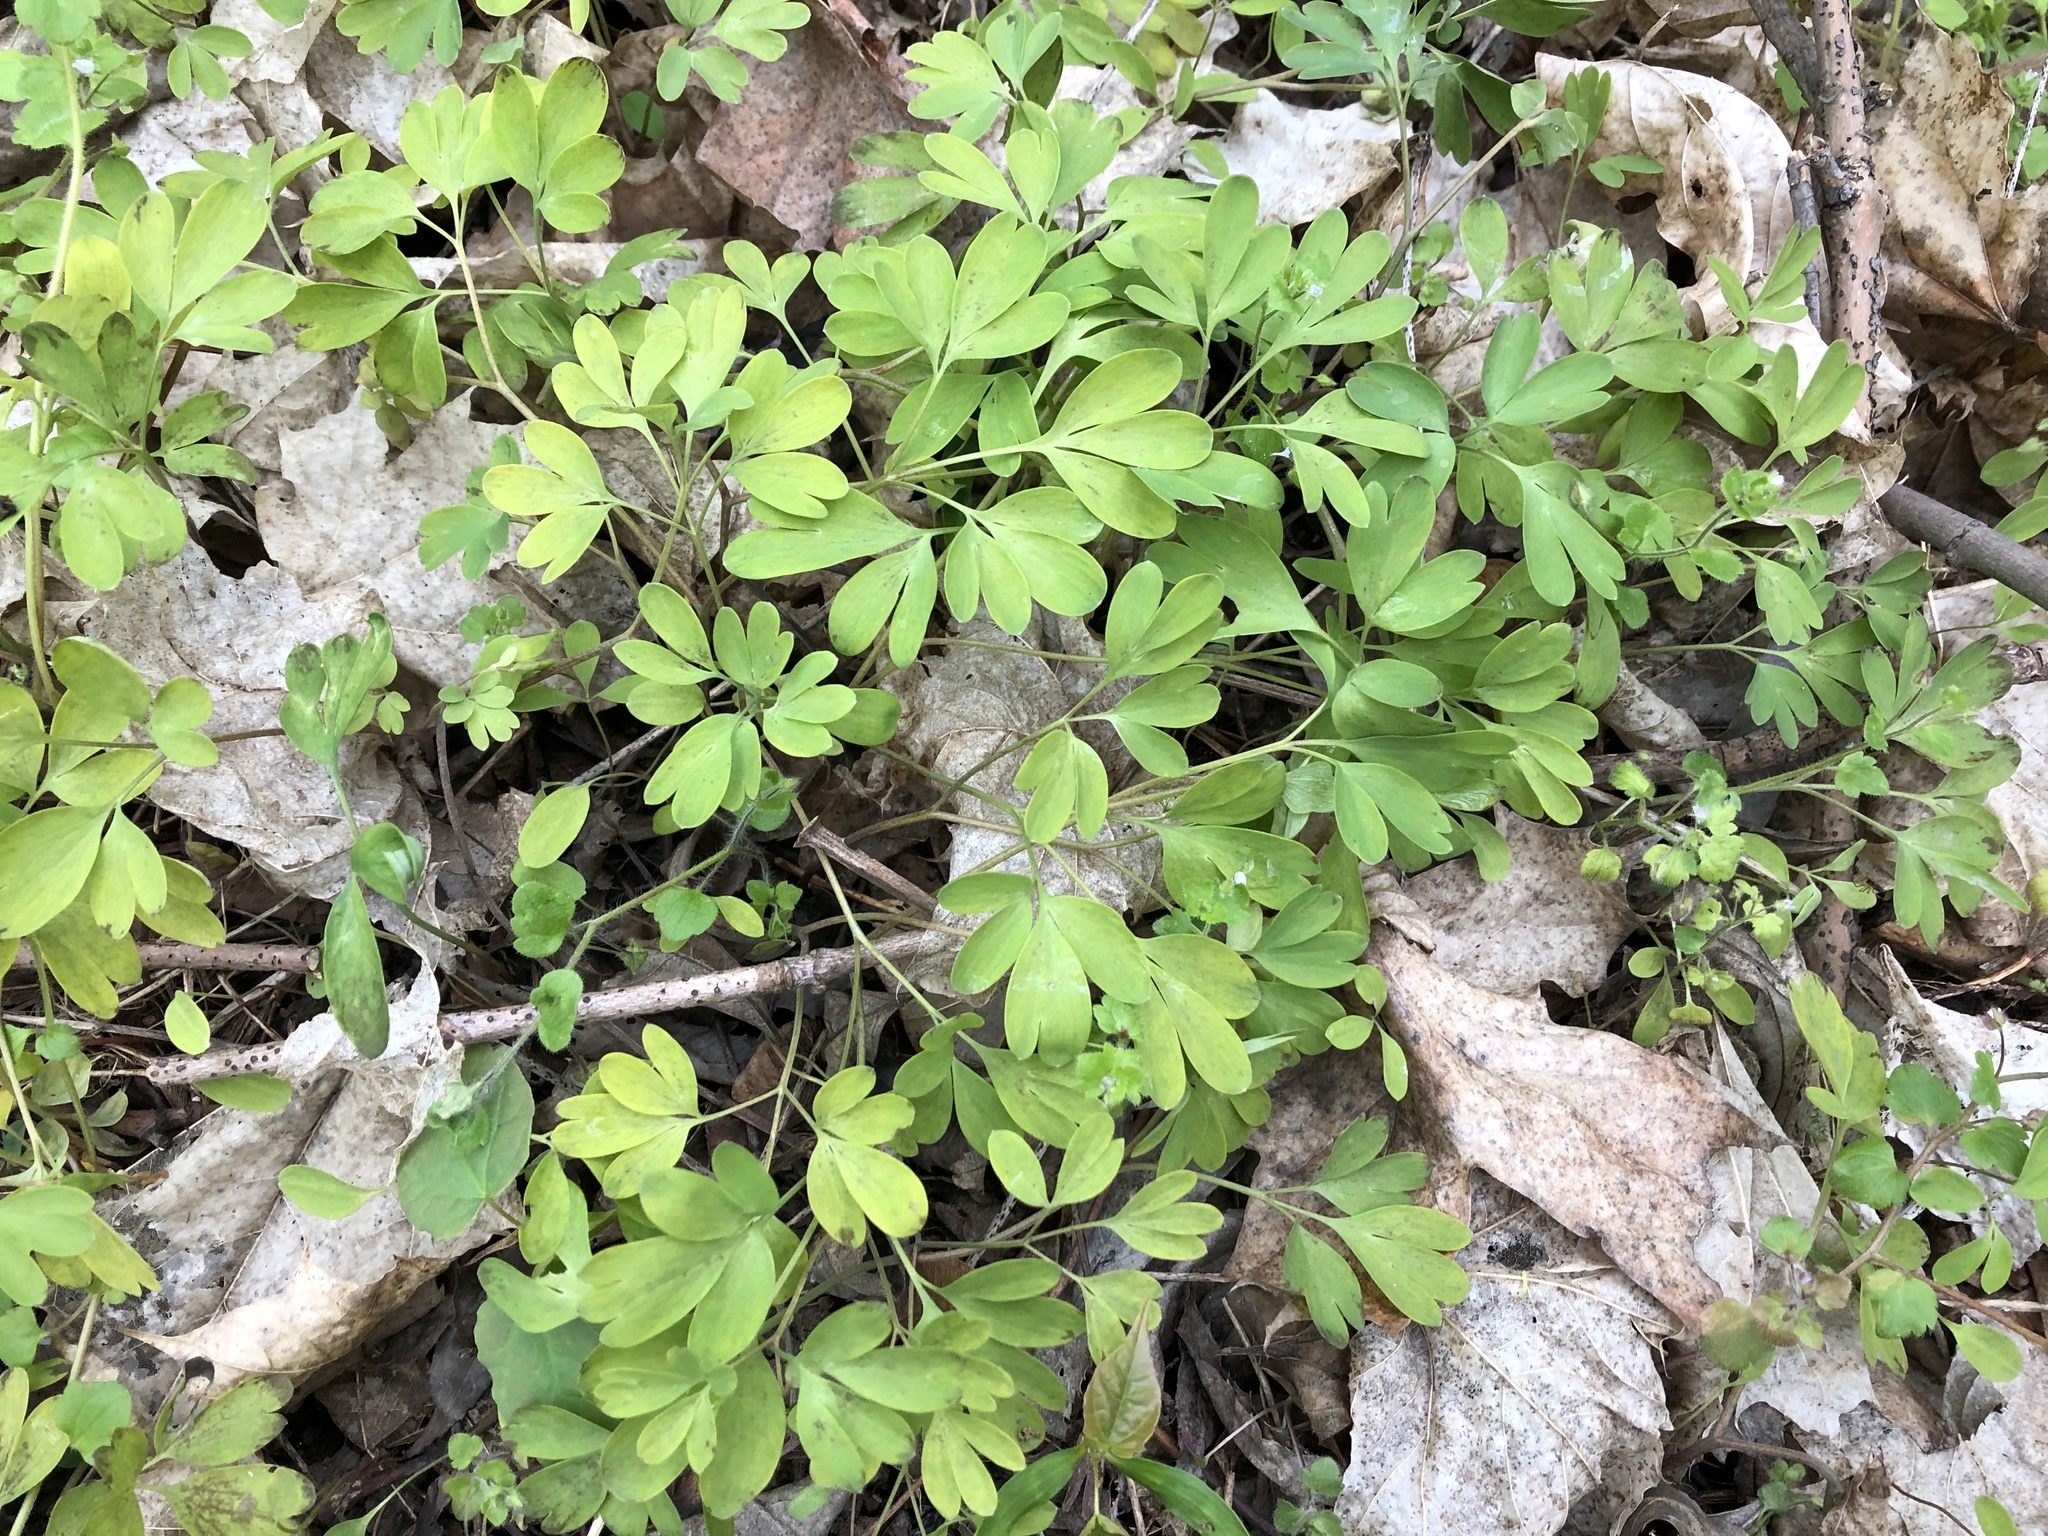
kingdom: Plantae
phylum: Tracheophyta
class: Magnoliopsida
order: Ranunculales
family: Papaveraceae
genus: Corydalis
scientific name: Corydalis intermedia
